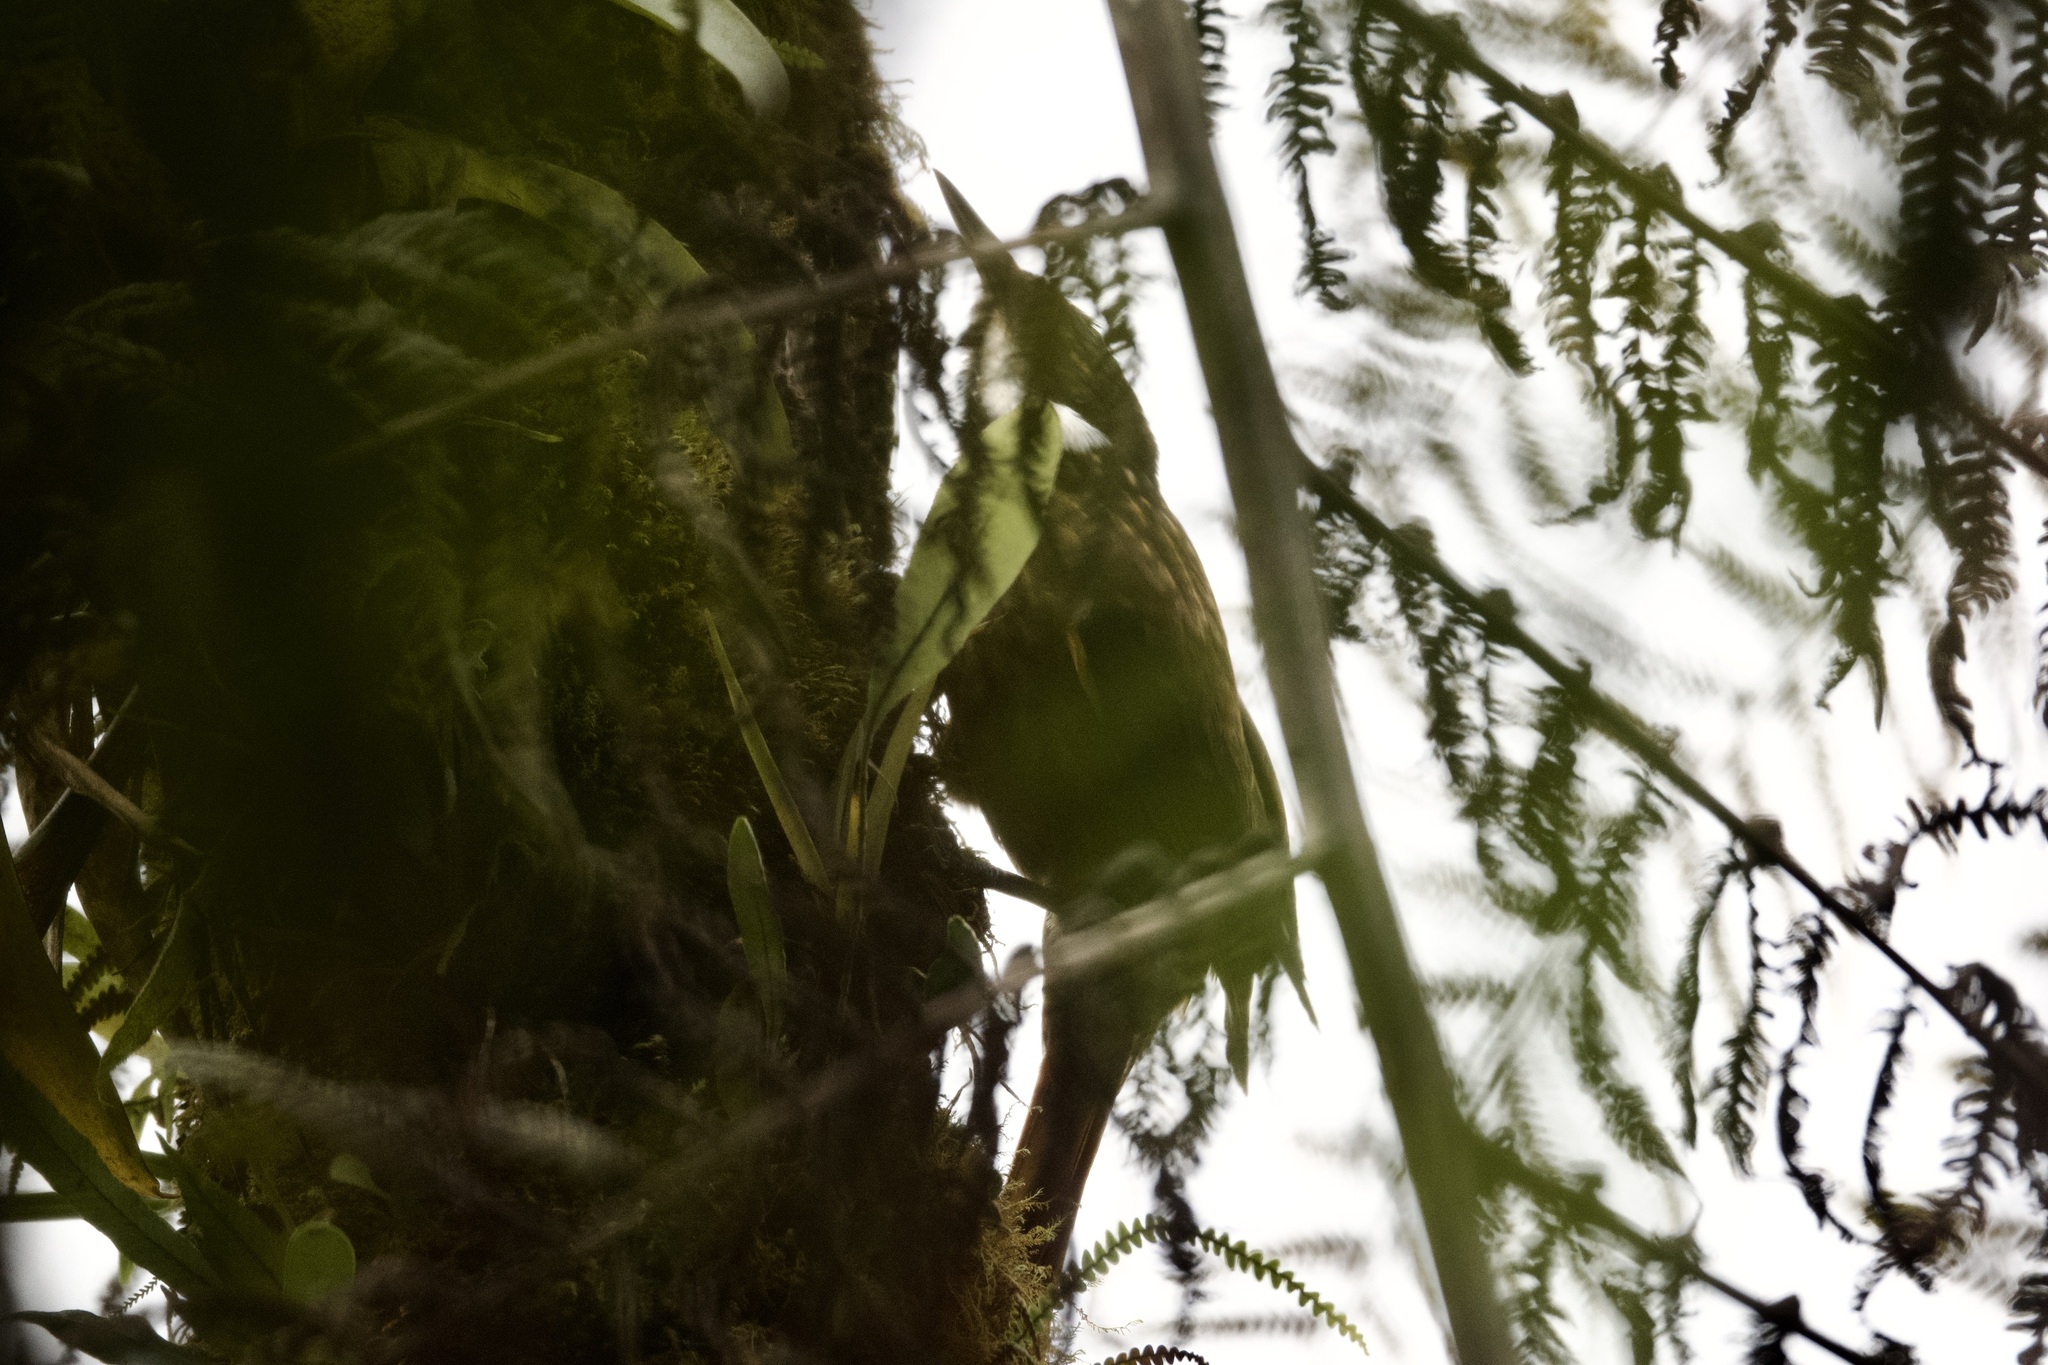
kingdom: Animalia
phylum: Chordata
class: Aves
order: Passeriformes
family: Furnariidae
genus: Pseudocolaptes
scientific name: Pseudocolaptes boissonneautii
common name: Streaked tuftedcheek
